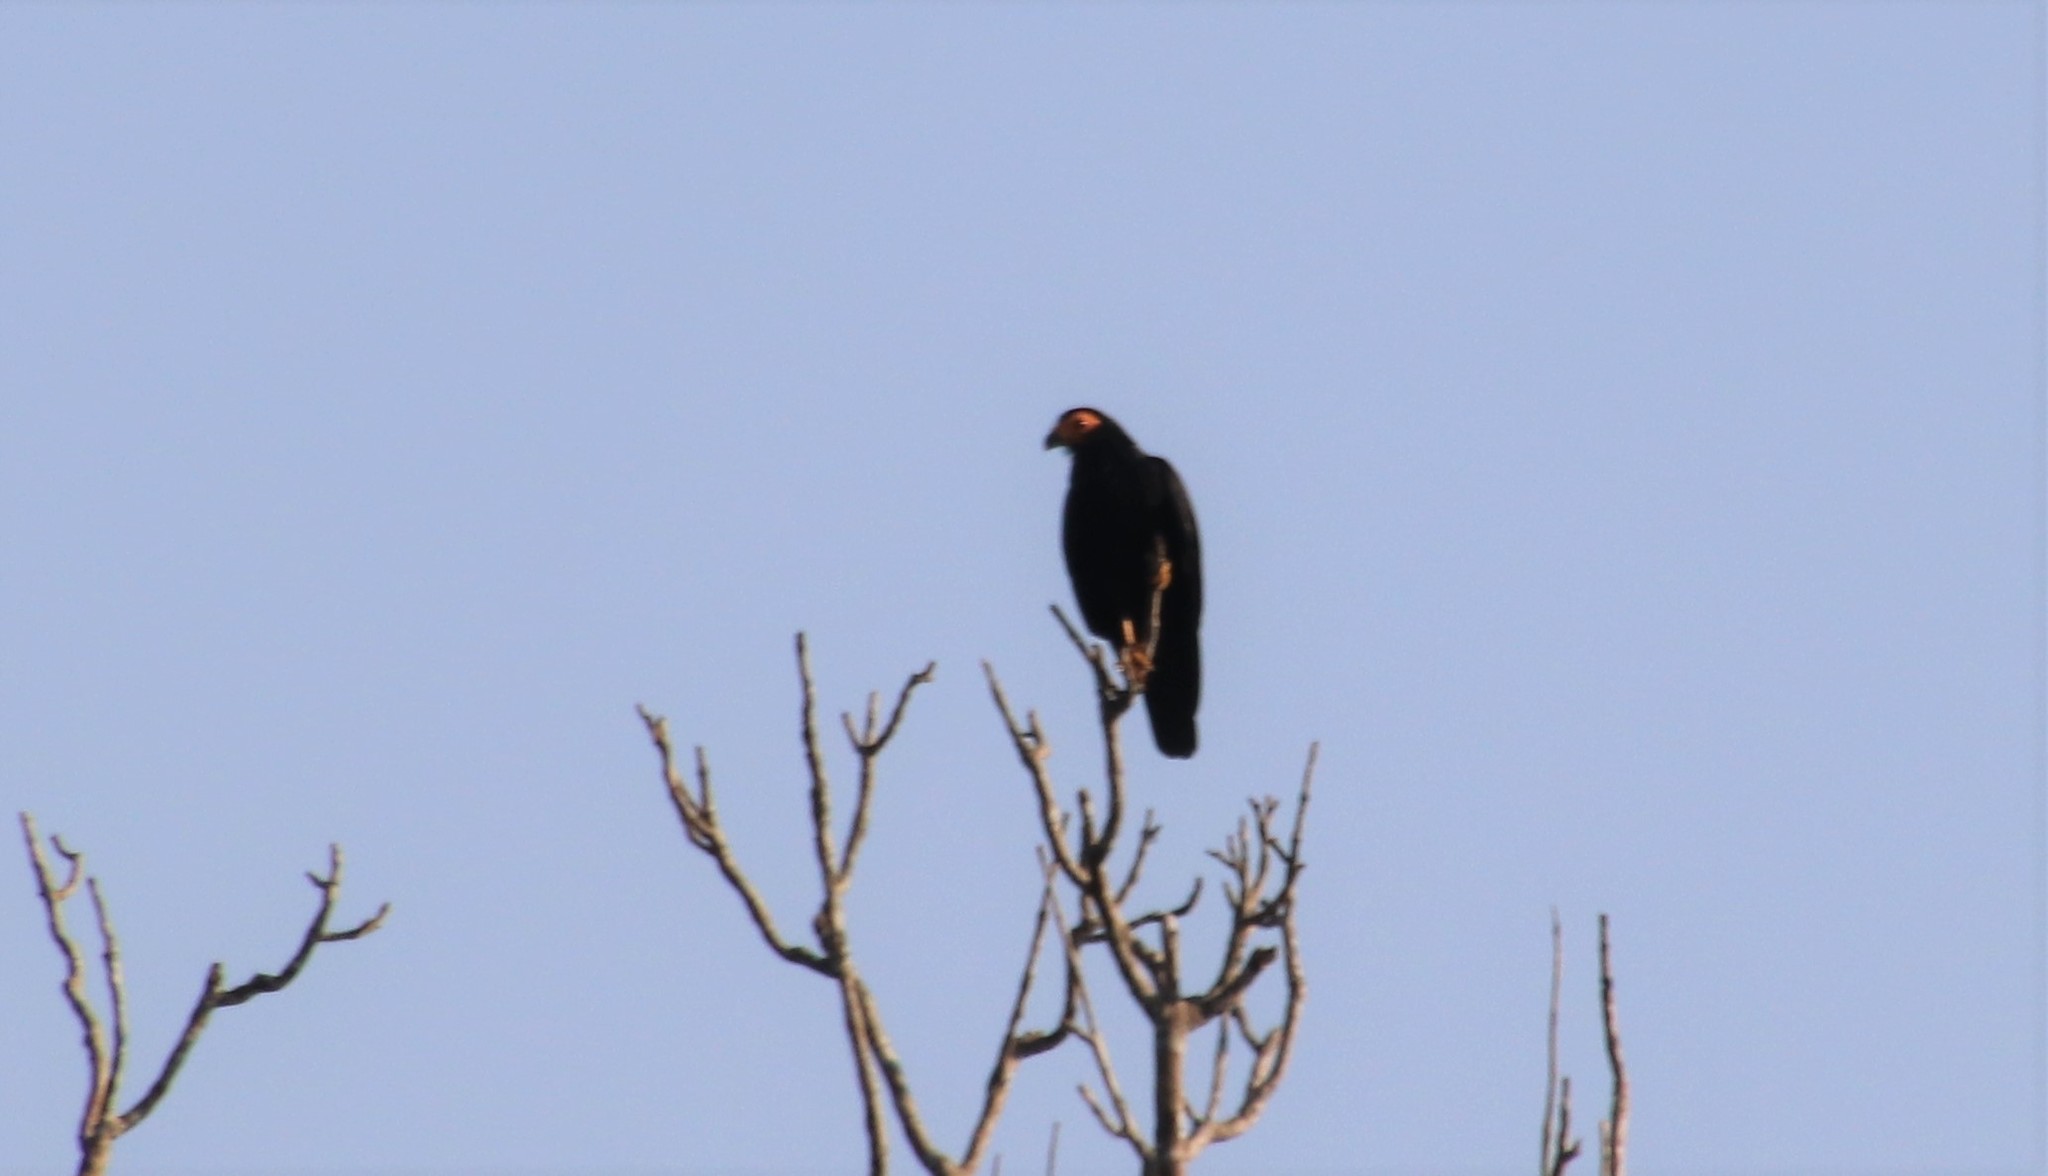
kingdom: Animalia
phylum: Chordata
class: Aves
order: Falconiformes
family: Falconidae
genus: Daptrius
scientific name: Daptrius ater
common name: Black caracara
